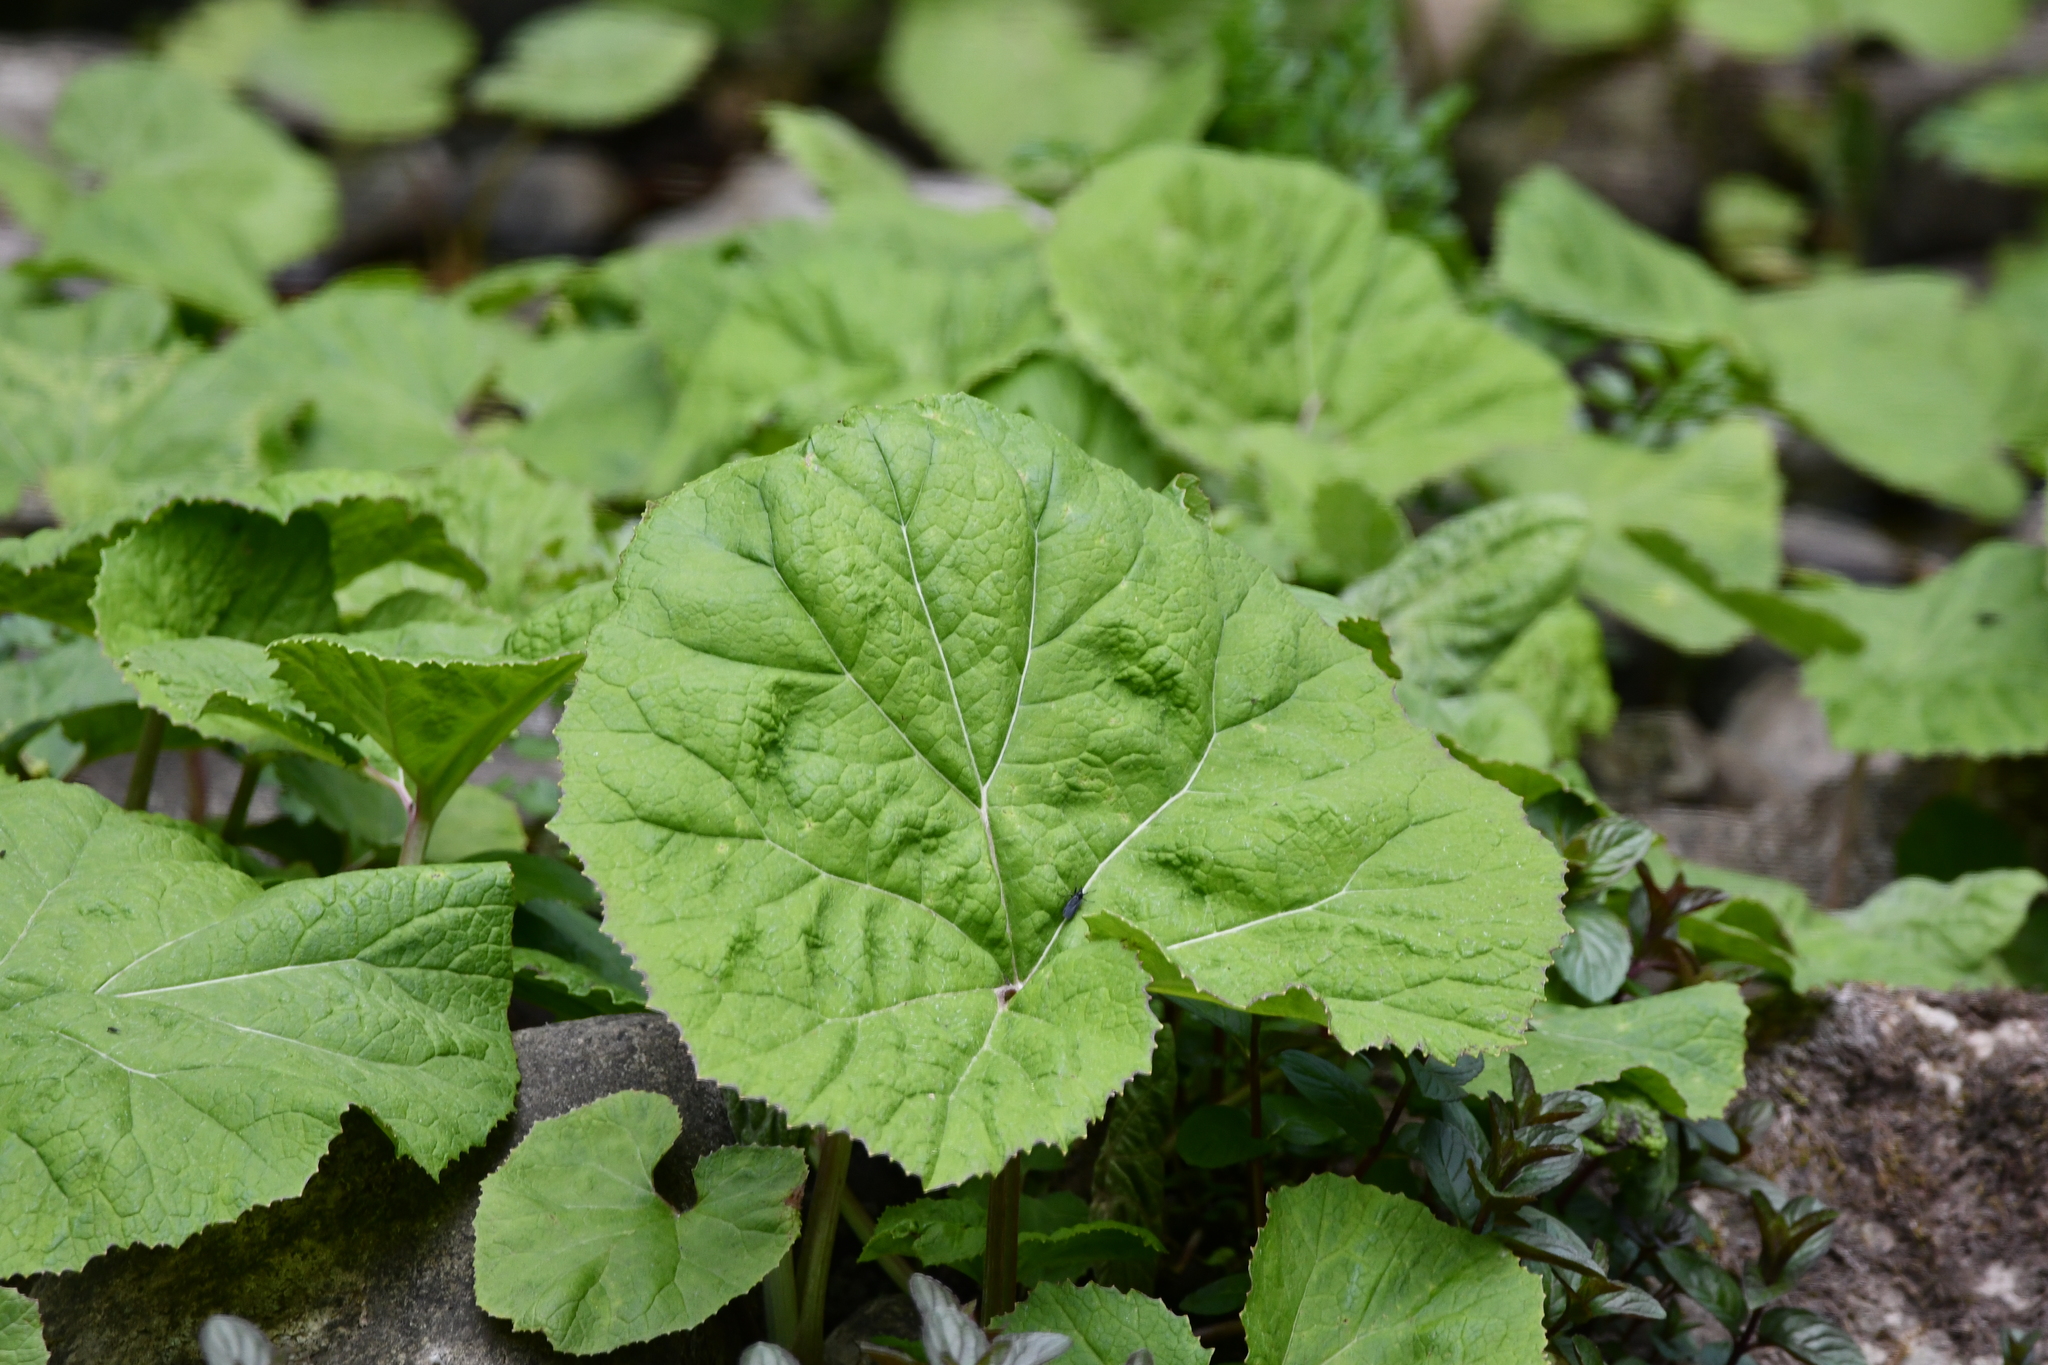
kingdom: Plantae
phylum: Tracheophyta
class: Magnoliopsida
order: Asterales
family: Asteraceae
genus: Petasites
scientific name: Petasites hybridus
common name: Butterbur
